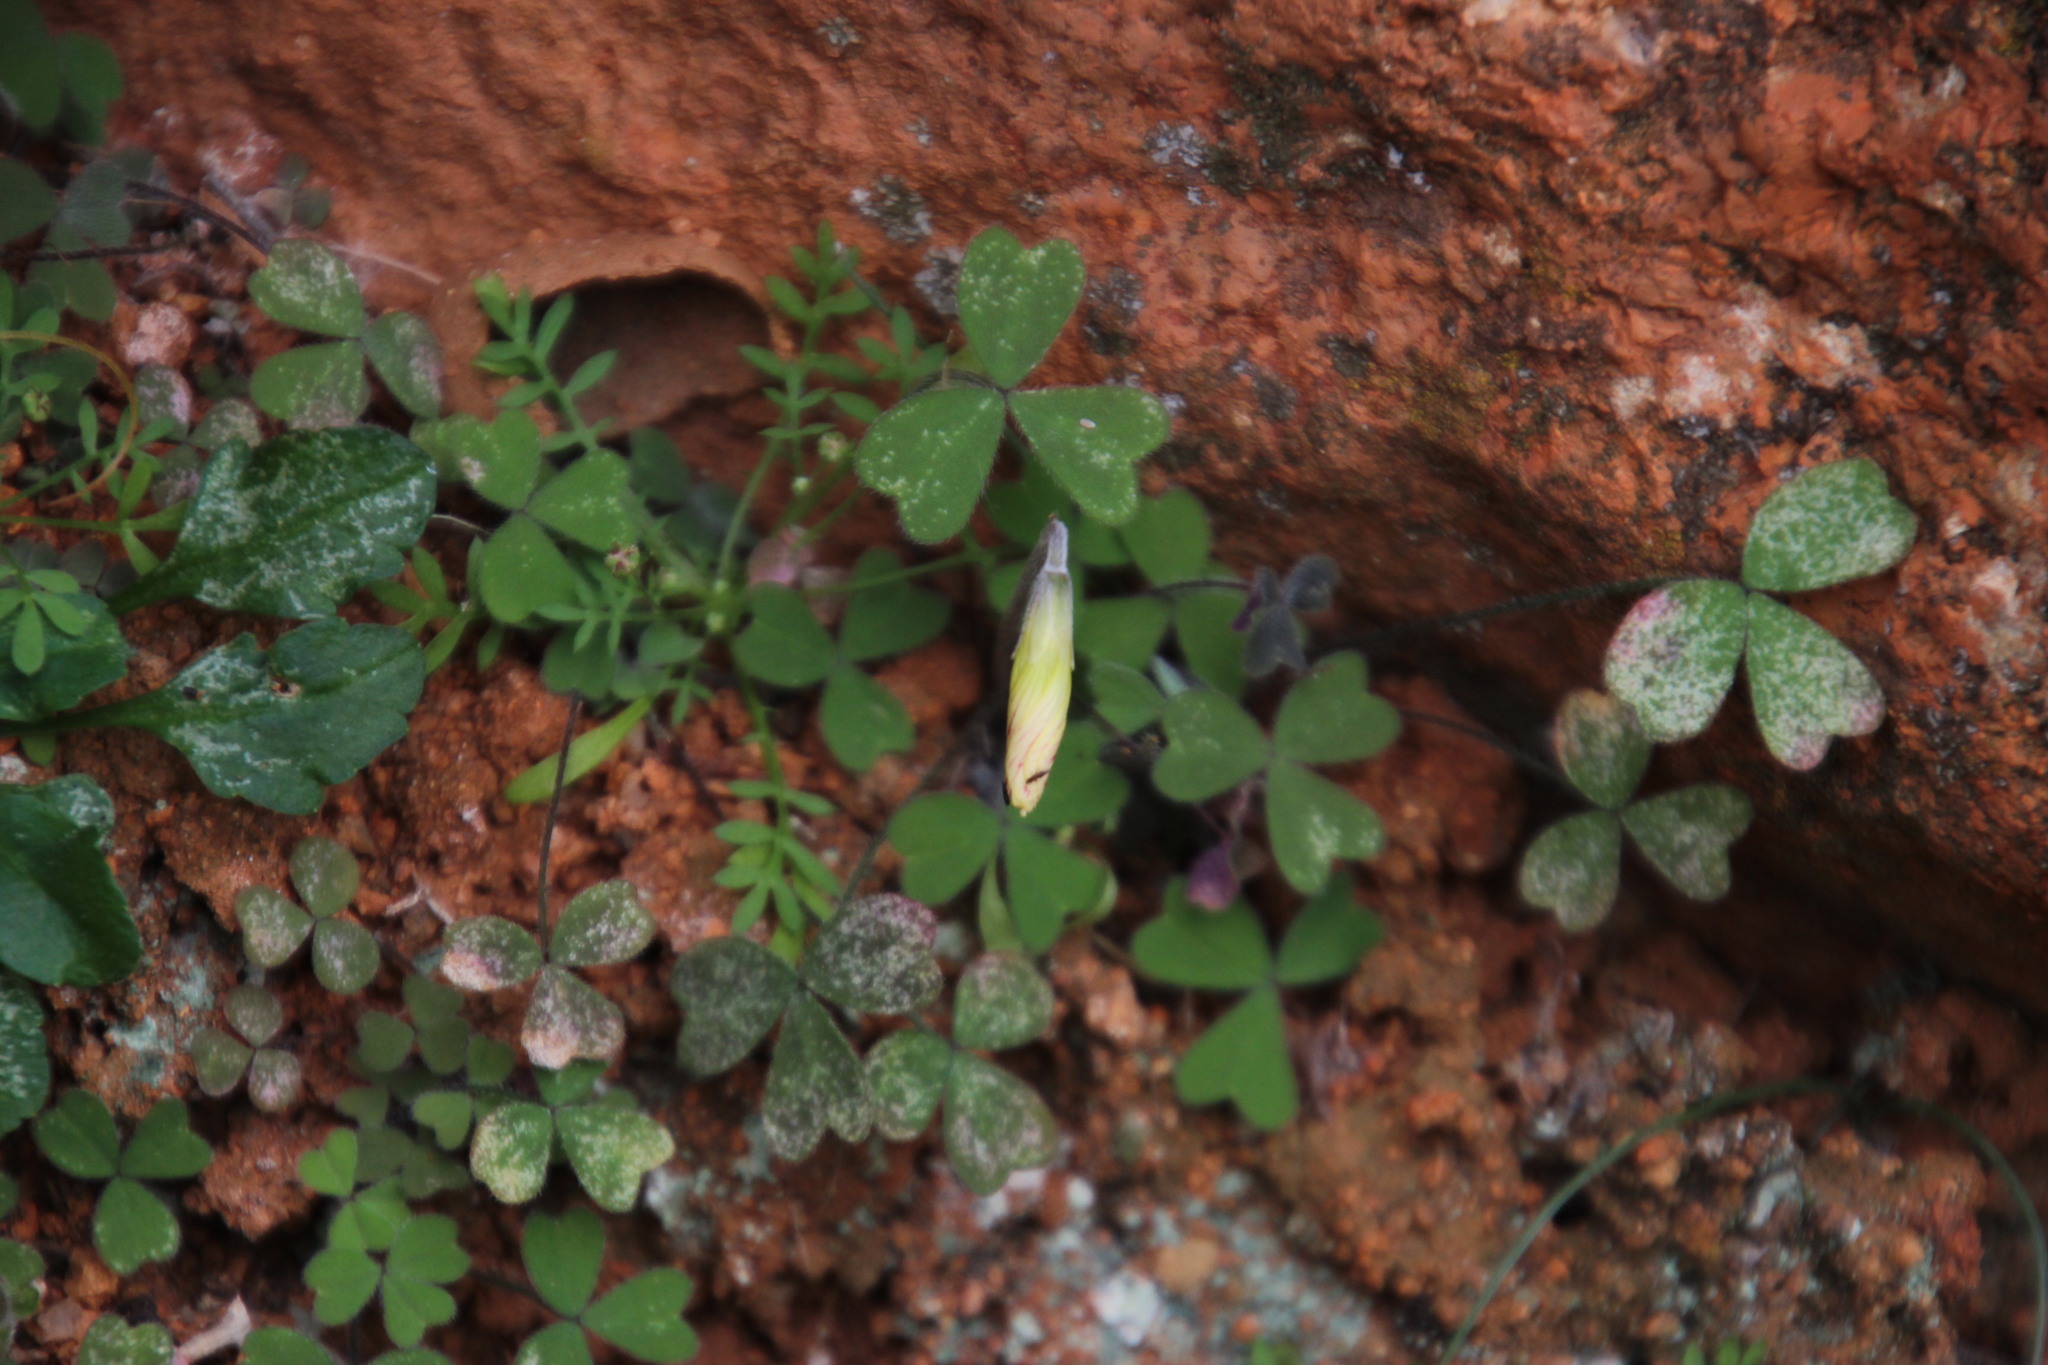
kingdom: Plantae
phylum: Tracheophyta
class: Magnoliopsida
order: Oxalidales
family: Oxalidaceae
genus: Oxalis
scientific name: Oxalis obtusa
